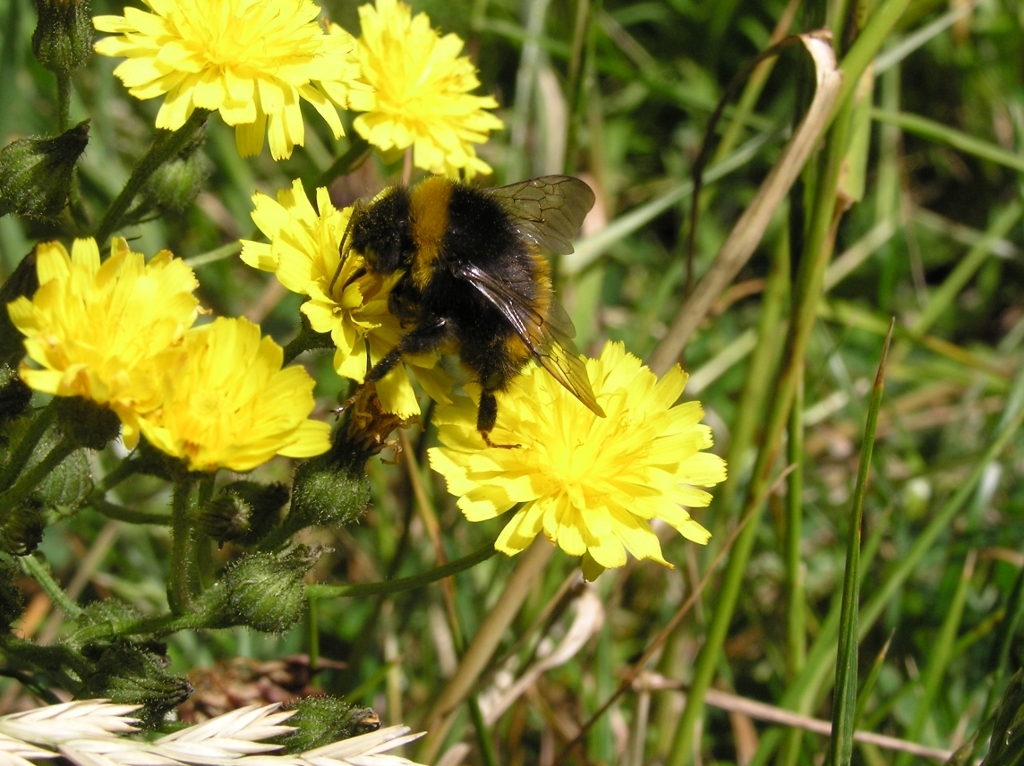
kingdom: Animalia
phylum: Arthropoda
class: Insecta
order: Hymenoptera
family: Apidae
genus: Bombus
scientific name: Bombus terrestris
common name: Buff-tailed bumblebee
